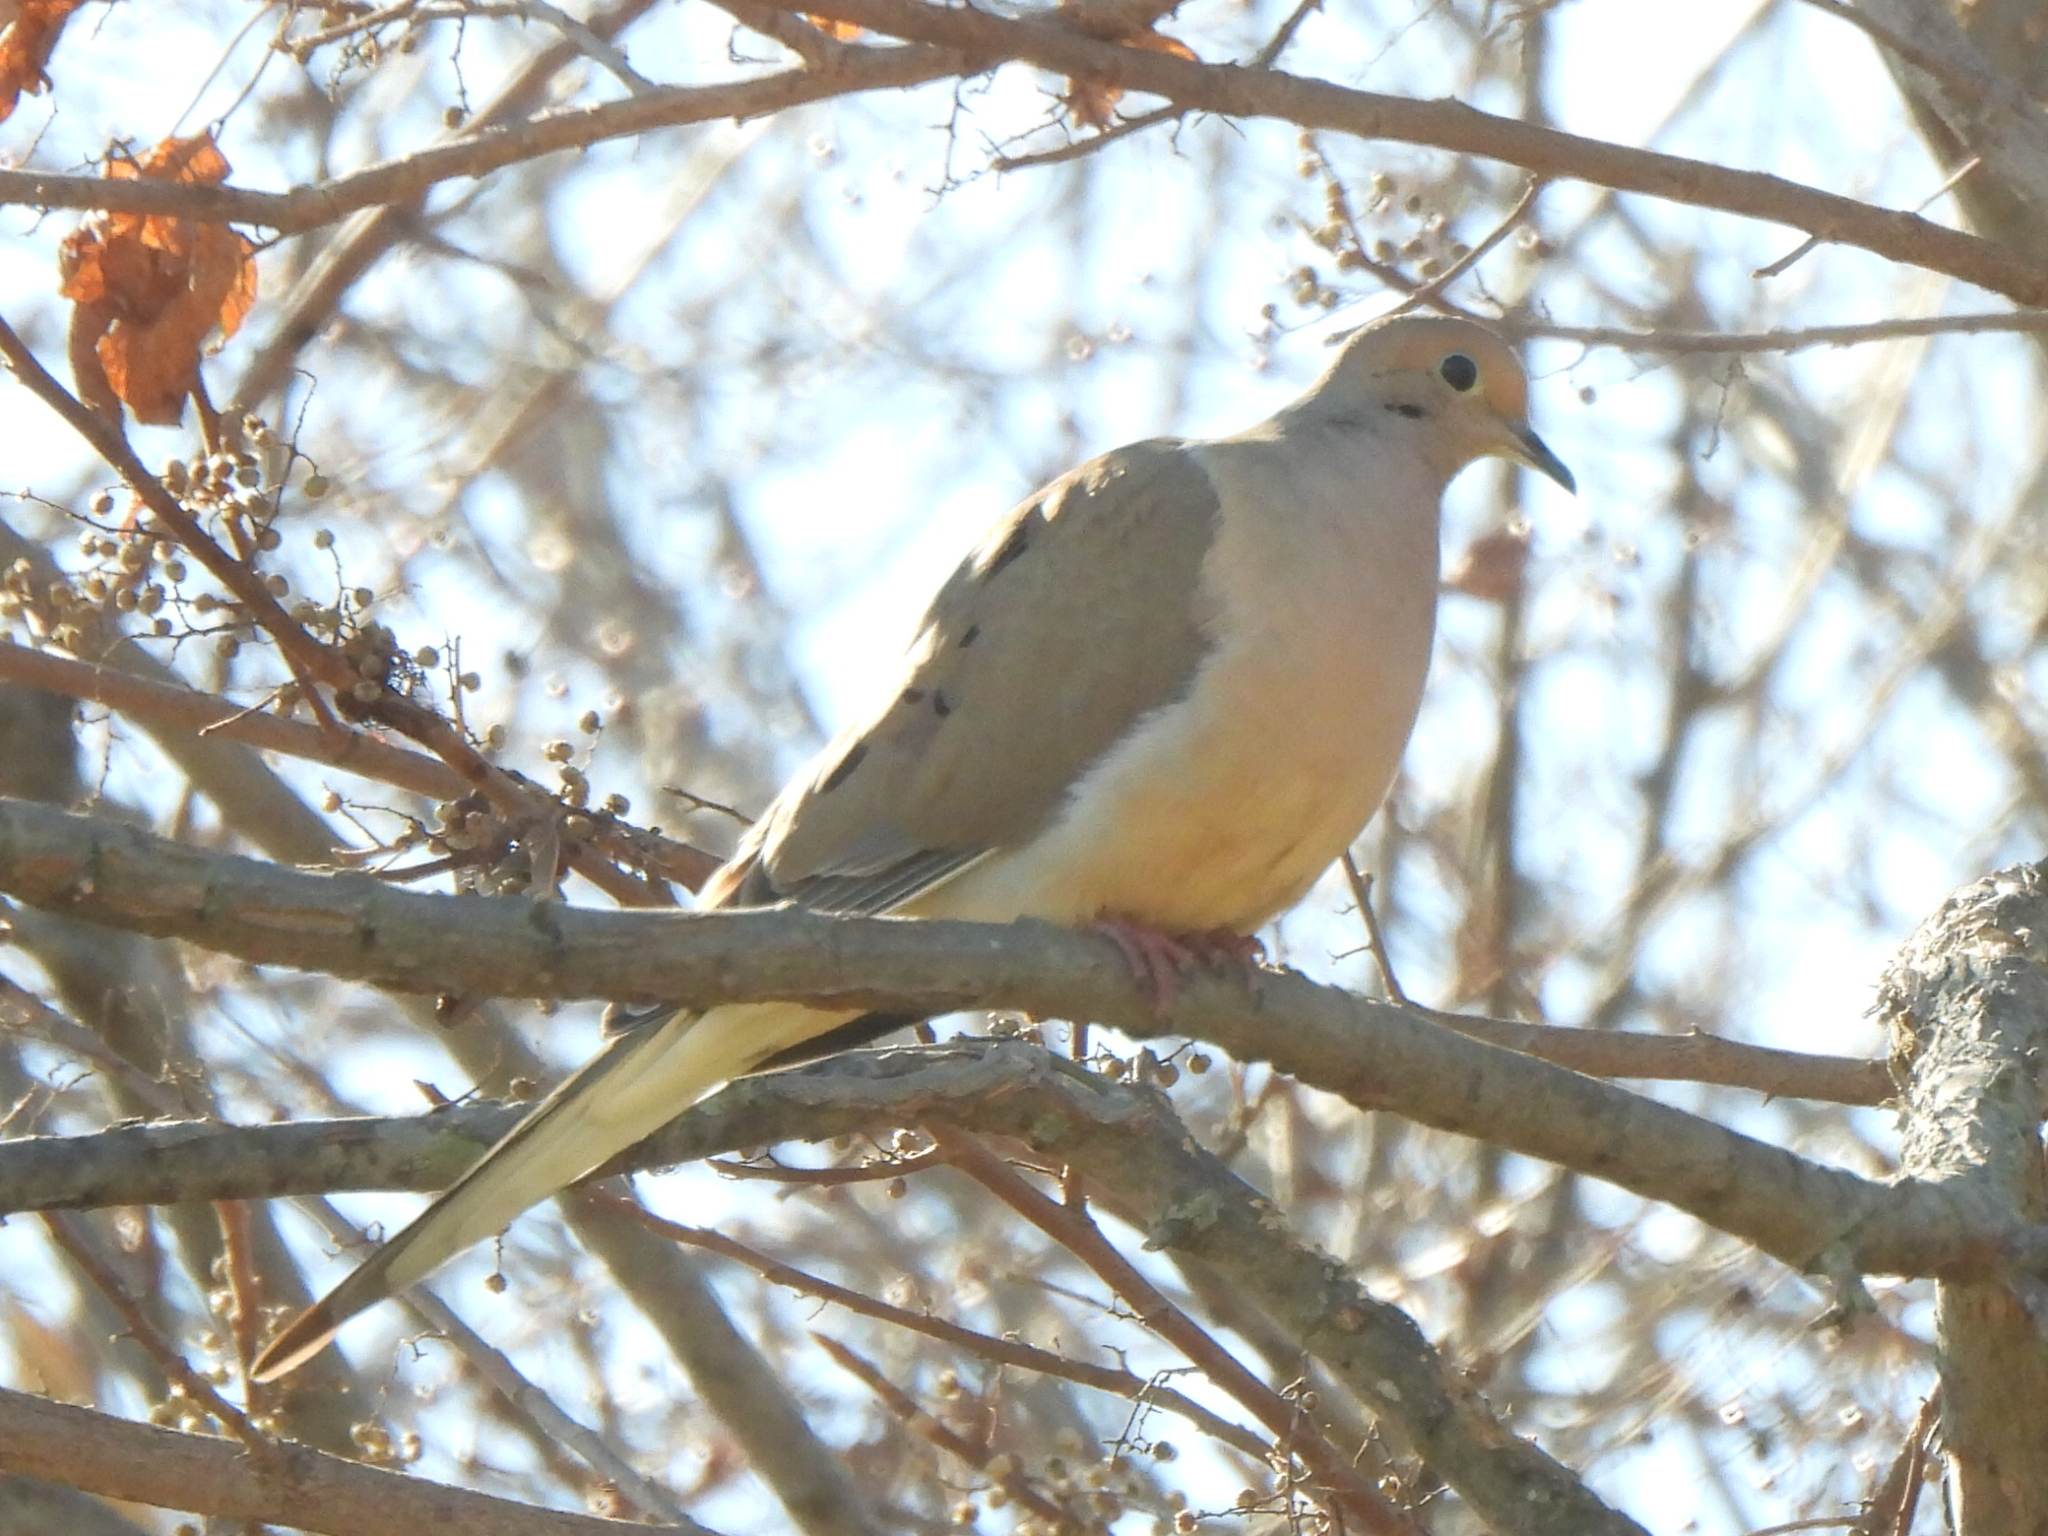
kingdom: Animalia
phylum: Chordata
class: Aves
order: Columbiformes
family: Columbidae
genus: Zenaida
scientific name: Zenaida macroura
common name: Mourning dove
